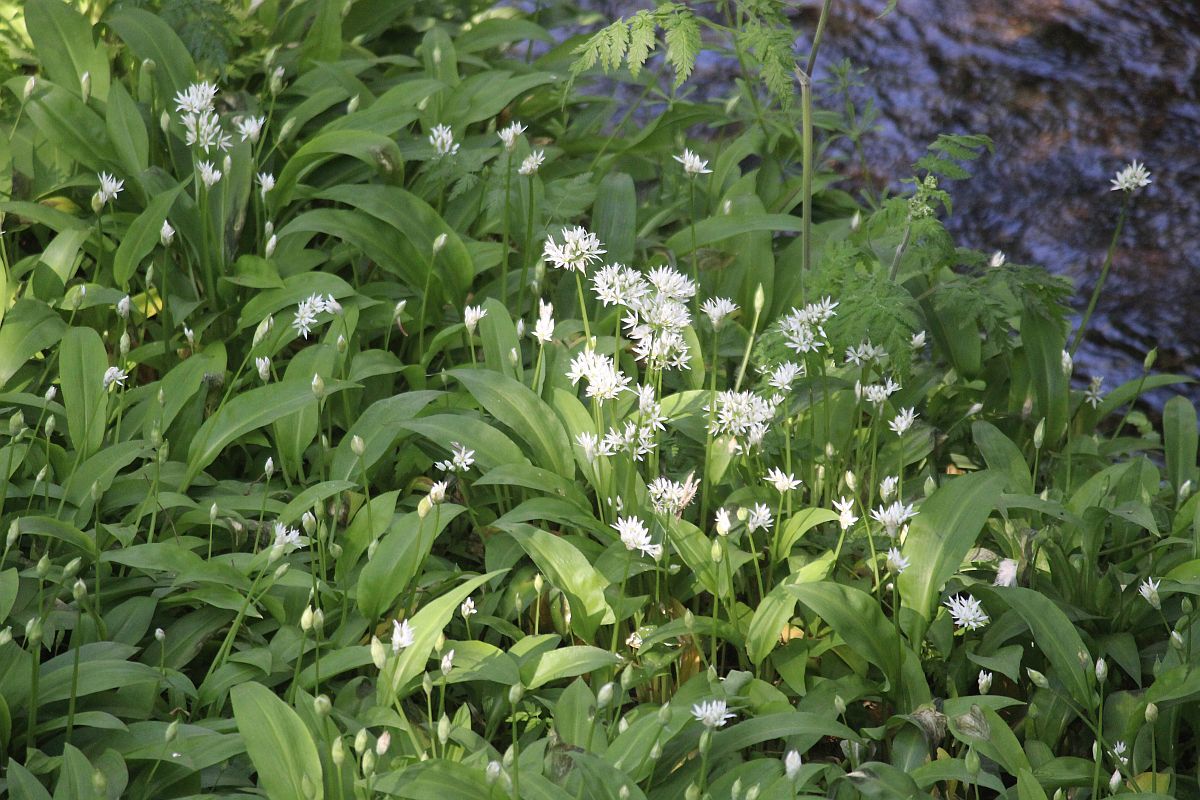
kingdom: Plantae
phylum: Tracheophyta
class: Liliopsida
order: Asparagales
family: Amaryllidaceae
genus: Allium
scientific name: Allium ursinum
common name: Ramsons
